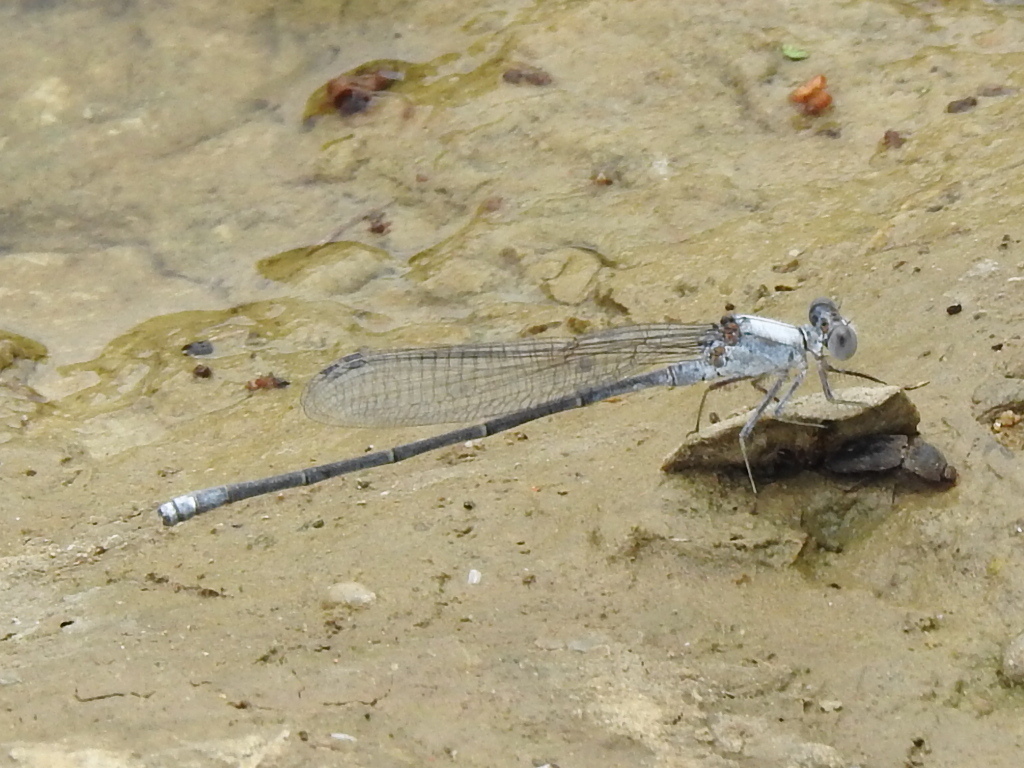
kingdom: Animalia
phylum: Arthropoda
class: Insecta
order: Odonata
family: Coenagrionidae
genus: Argia
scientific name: Argia moesta
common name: Powdered dancer
